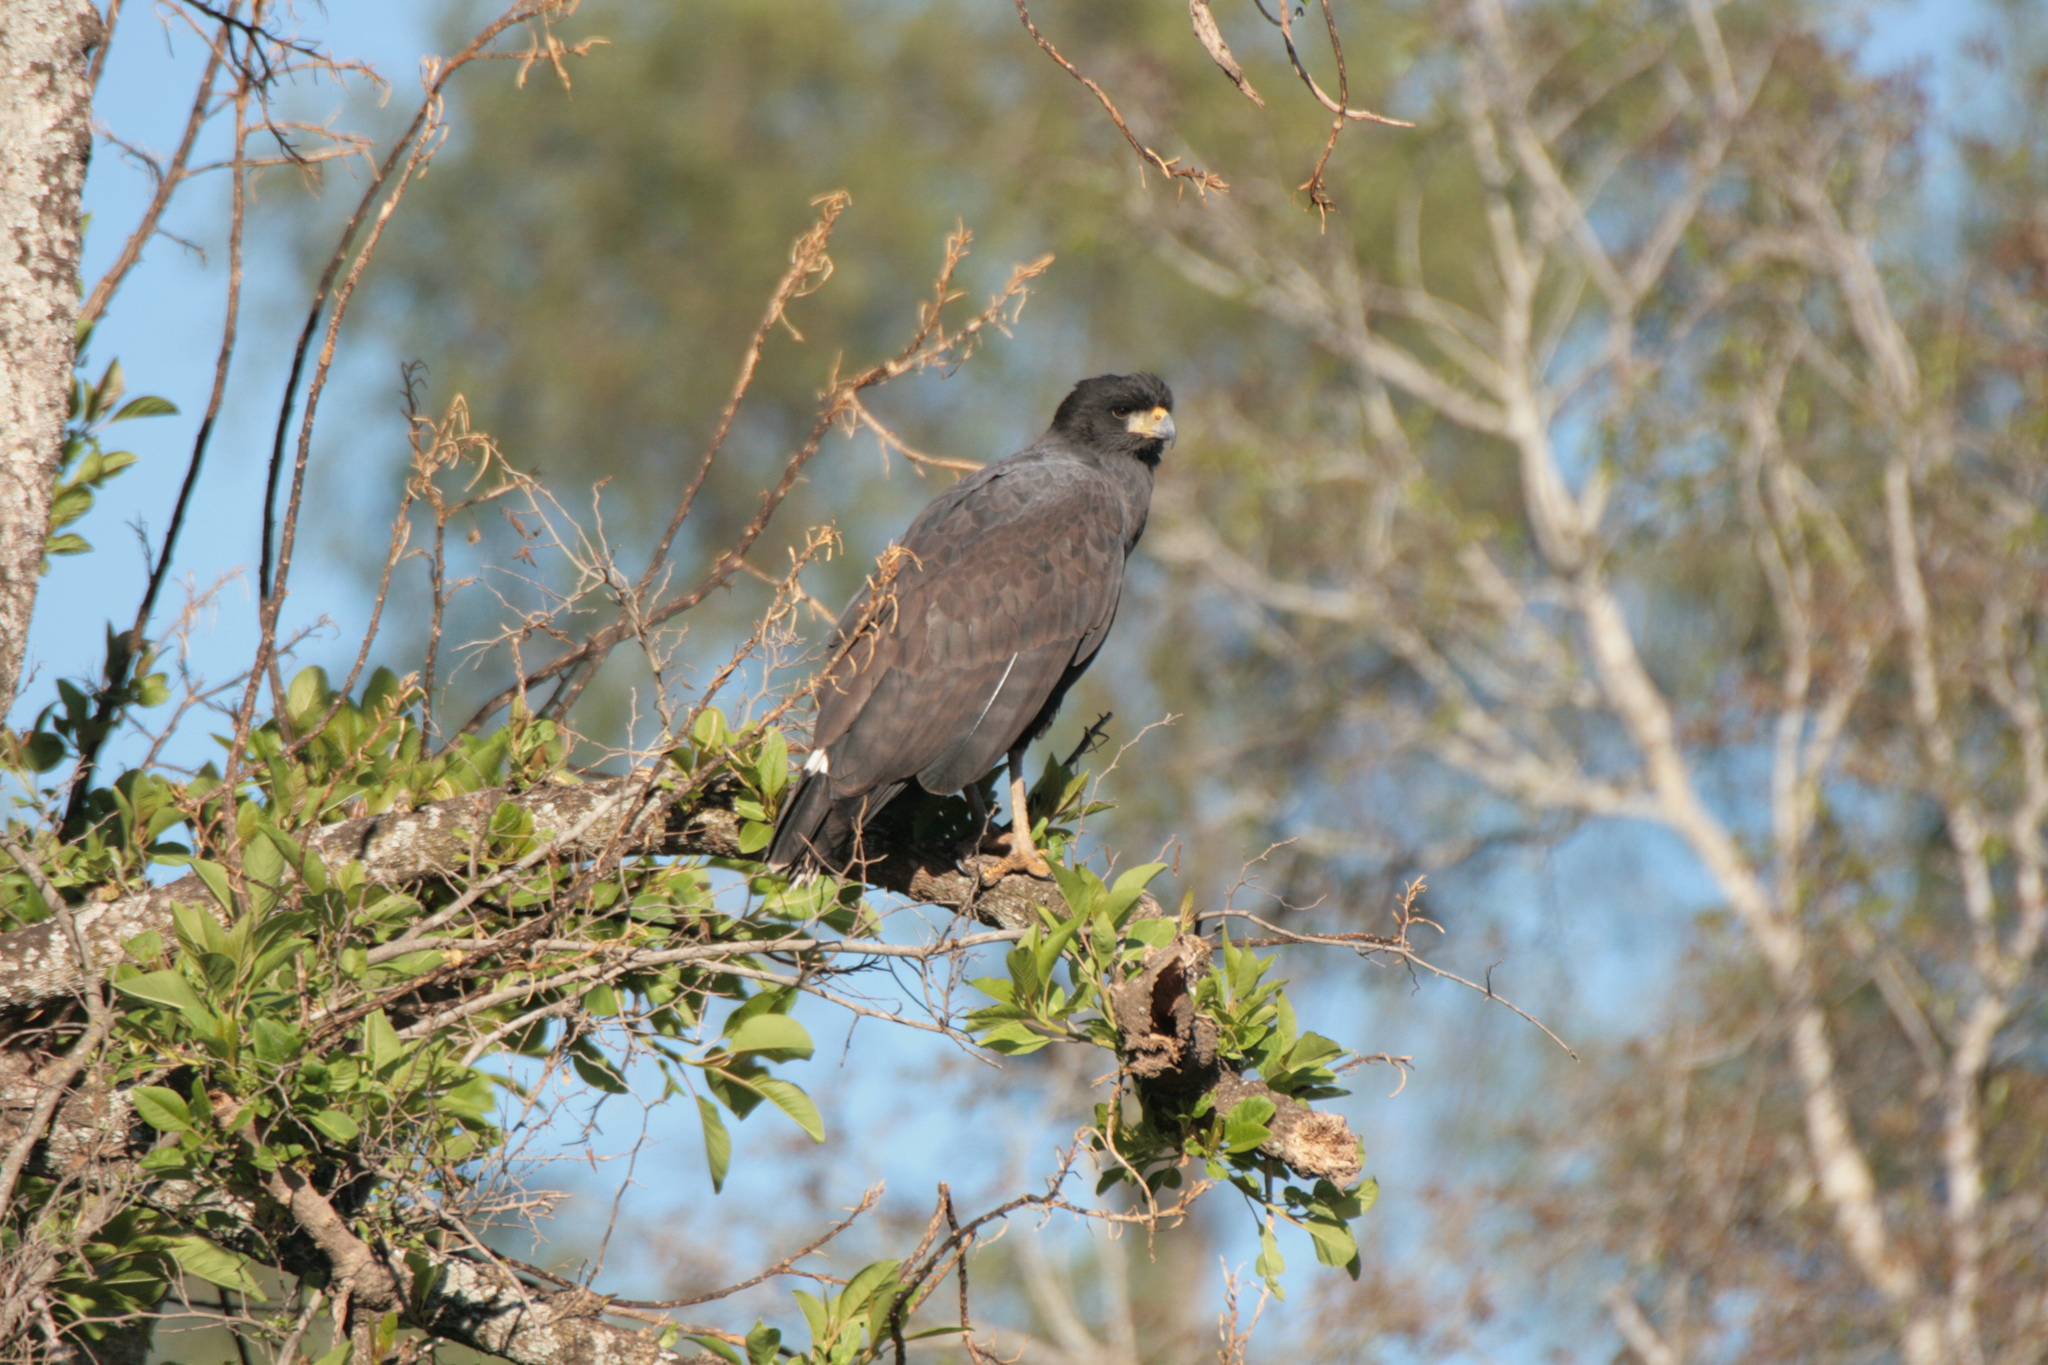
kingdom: Animalia
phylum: Chordata
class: Aves
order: Accipitriformes
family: Accipitridae
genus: Buteogallus
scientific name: Buteogallus urubitinga
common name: Great black hawk
